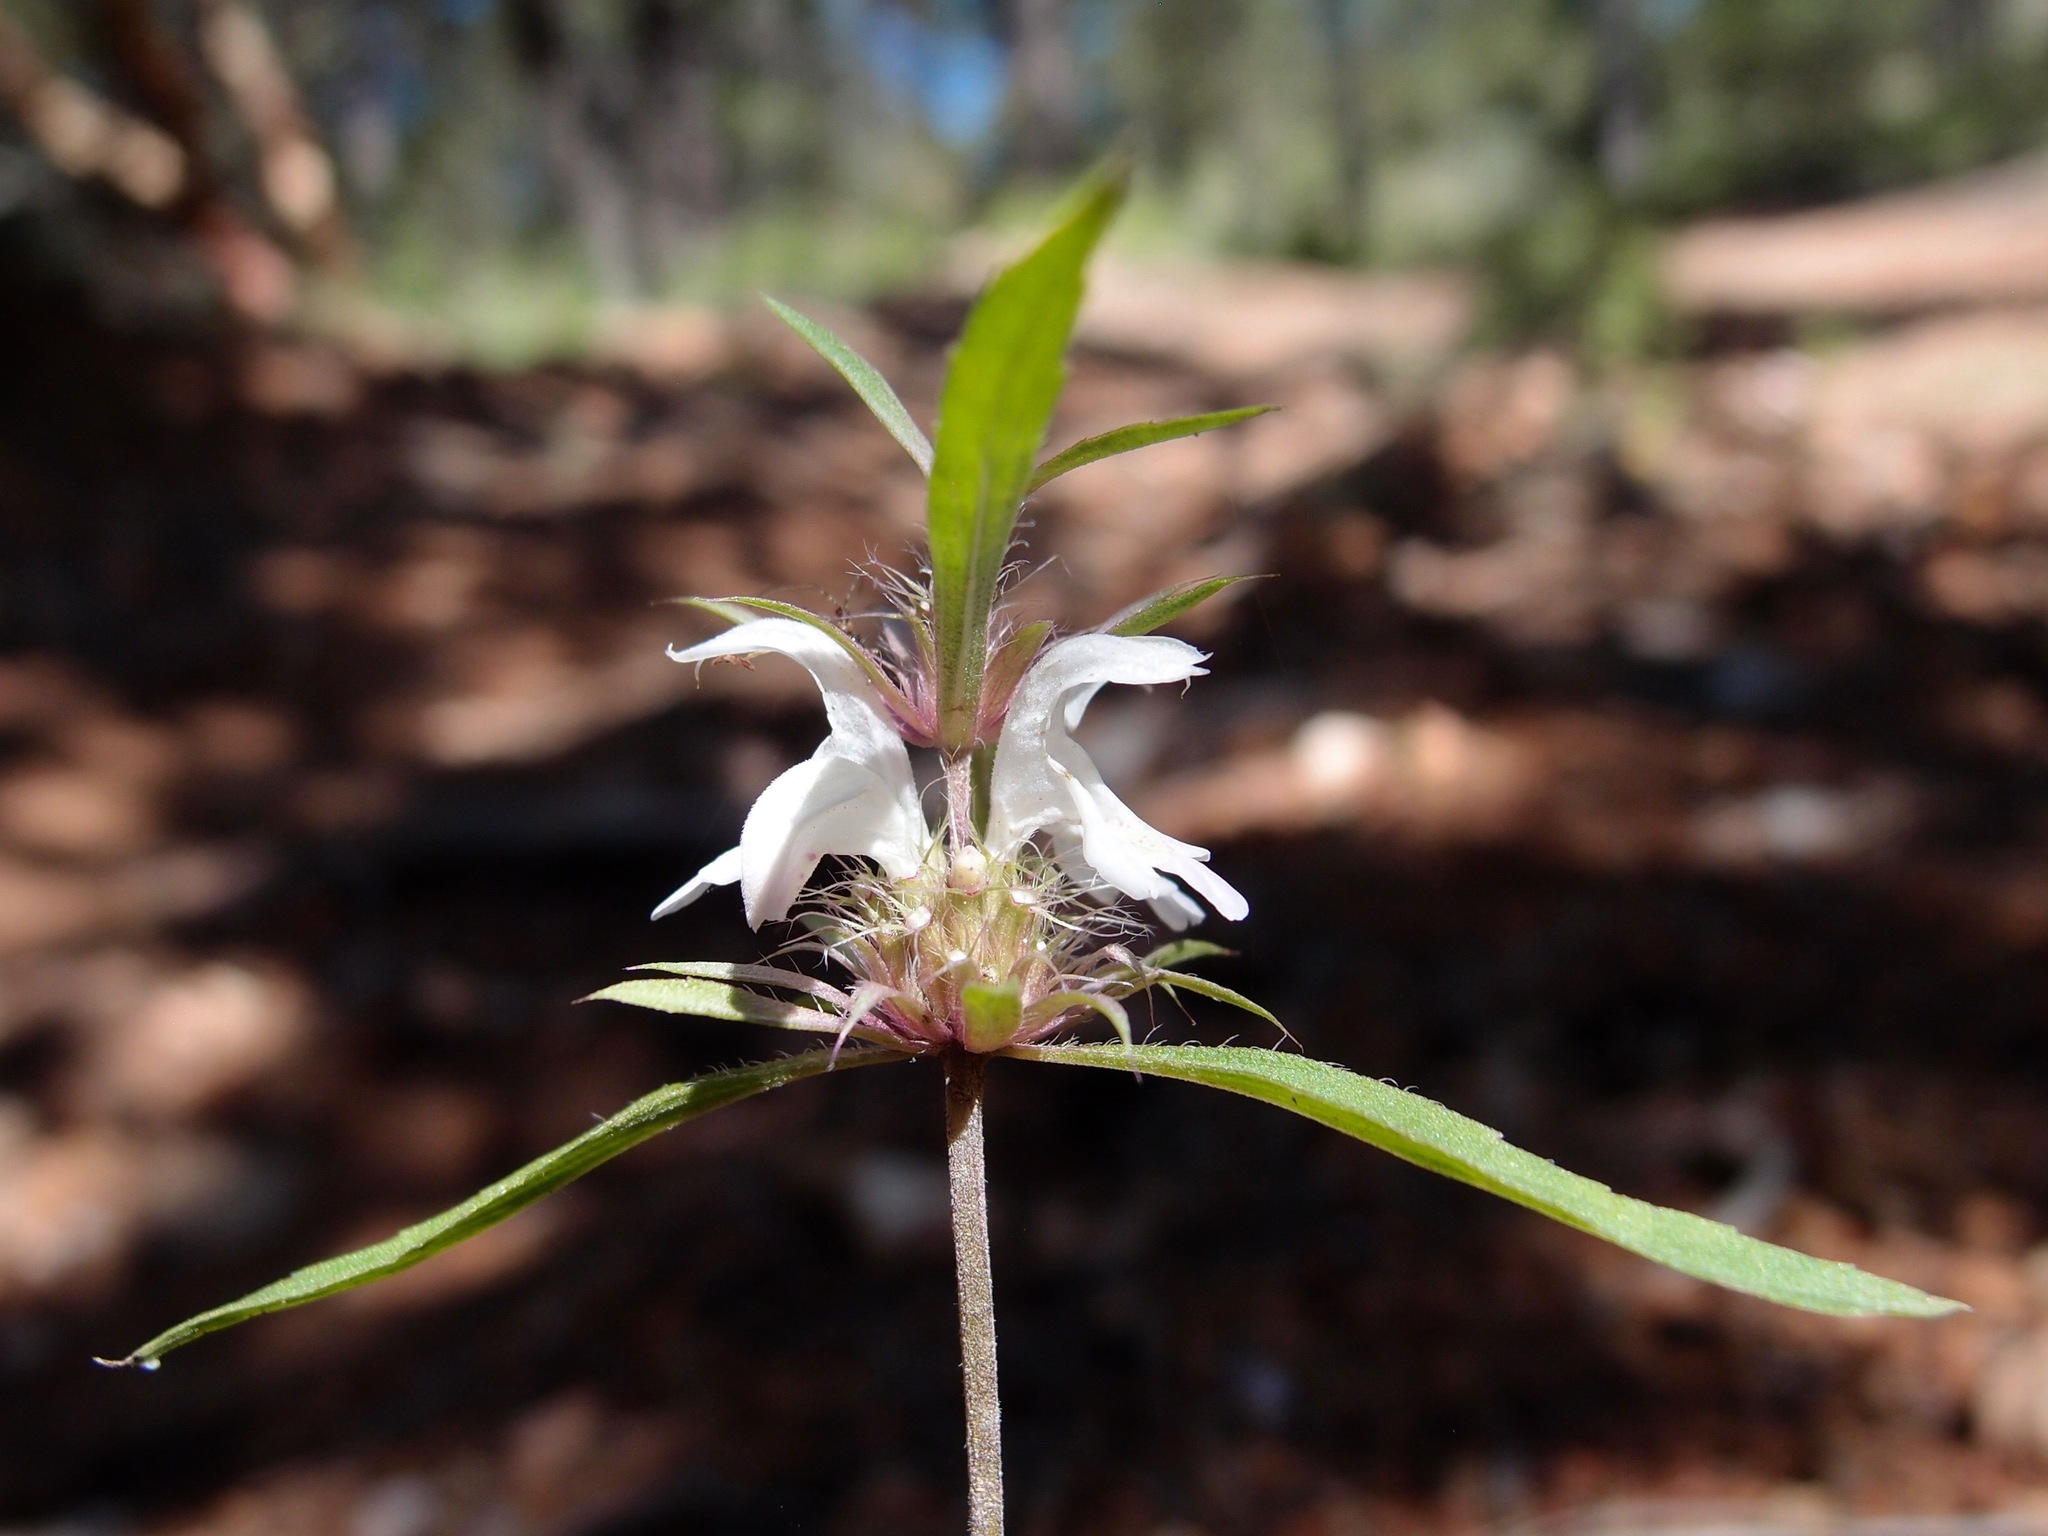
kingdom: Plantae
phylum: Tracheophyta
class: Magnoliopsida
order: Lamiales
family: Lamiaceae
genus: Monarda
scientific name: Monarda citriodora
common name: Lemon beebalm
